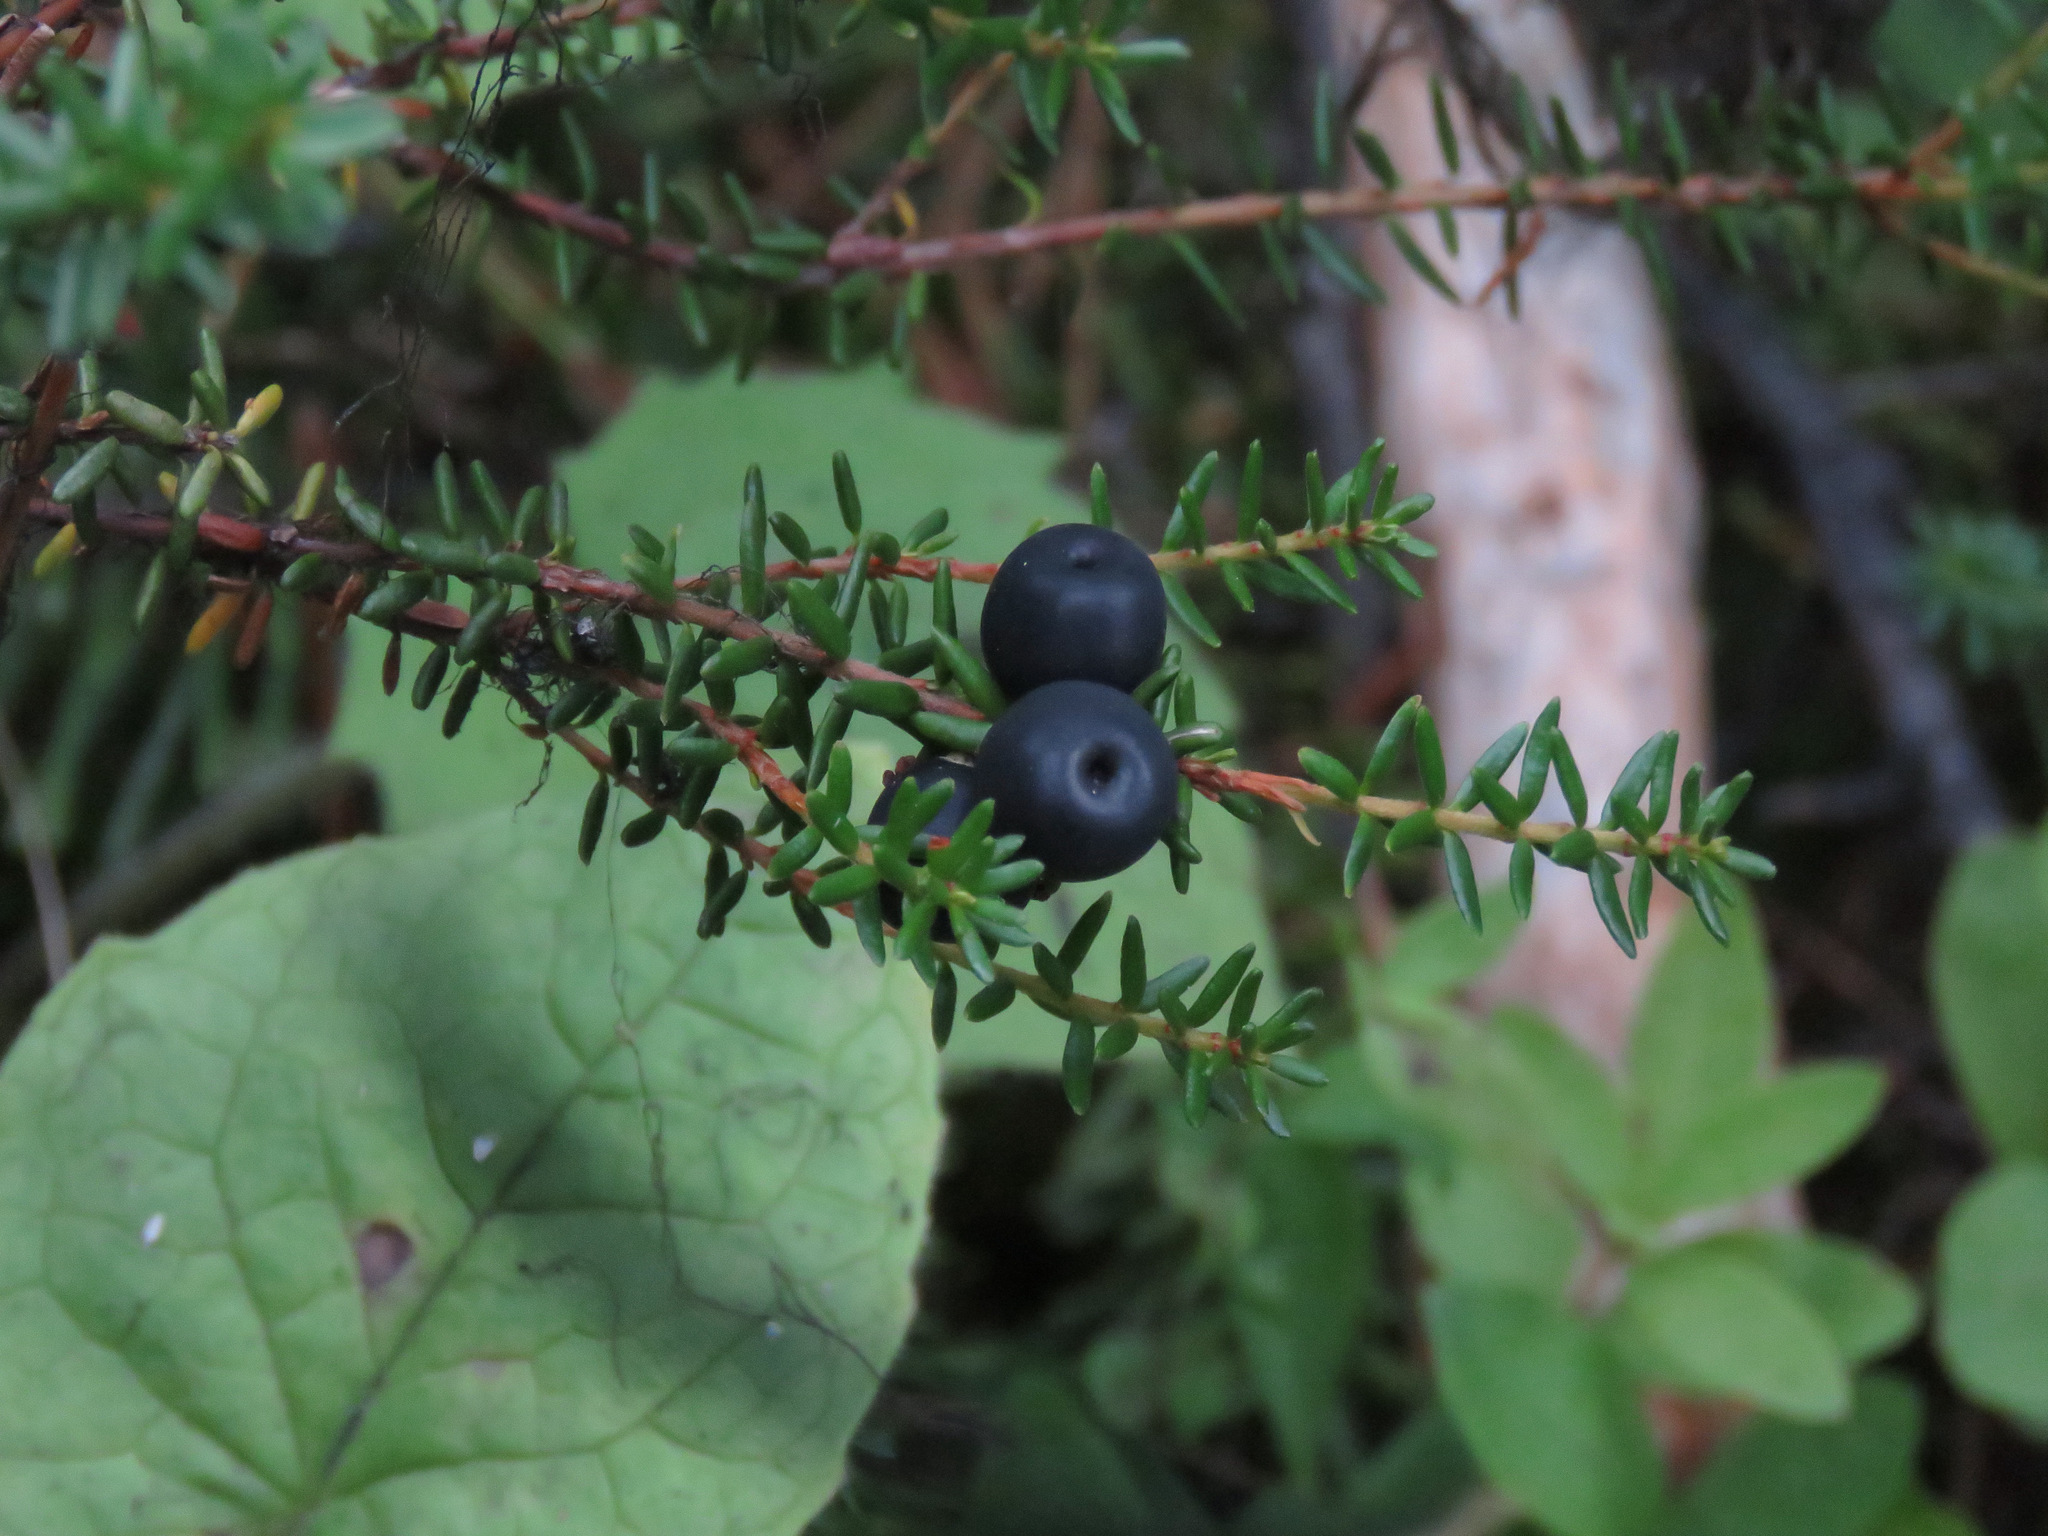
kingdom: Plantae
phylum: Tracheophyta
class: Magnoliopsida
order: Ericales
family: Ericaceae
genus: Empetrum
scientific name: Empetrum nigrum
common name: Black crowberry
